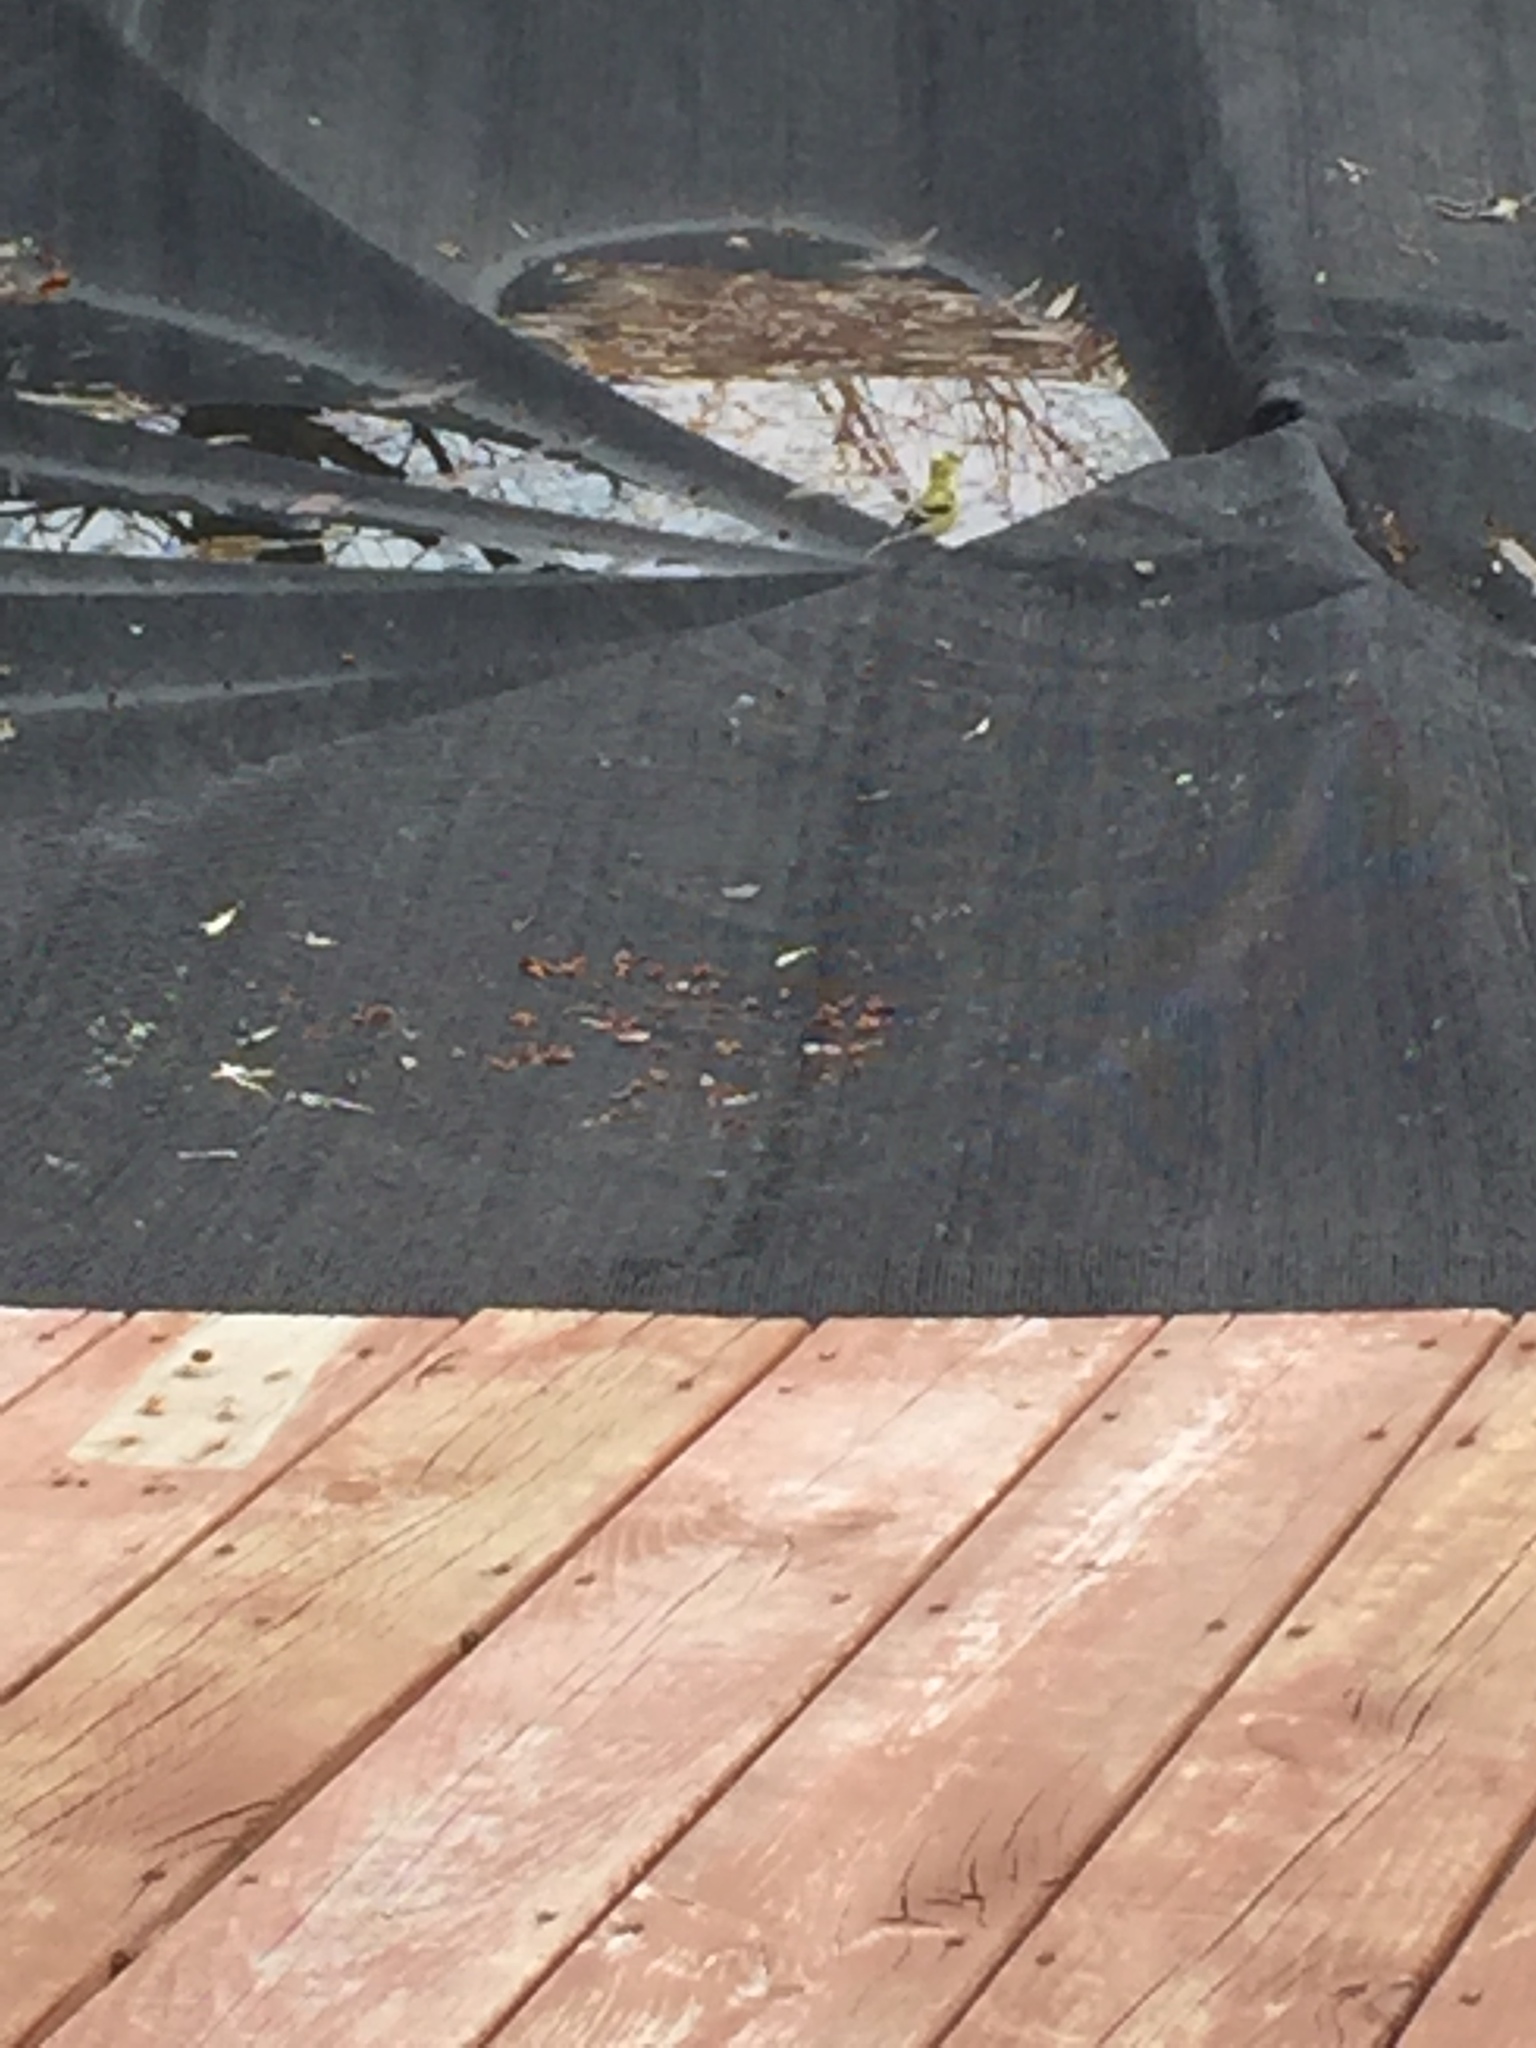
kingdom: Animalia
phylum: Chordata
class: Aves
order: Passeriformes
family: Fringillidae
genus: Spinus
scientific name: Spinus tristis
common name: American goldfinch
